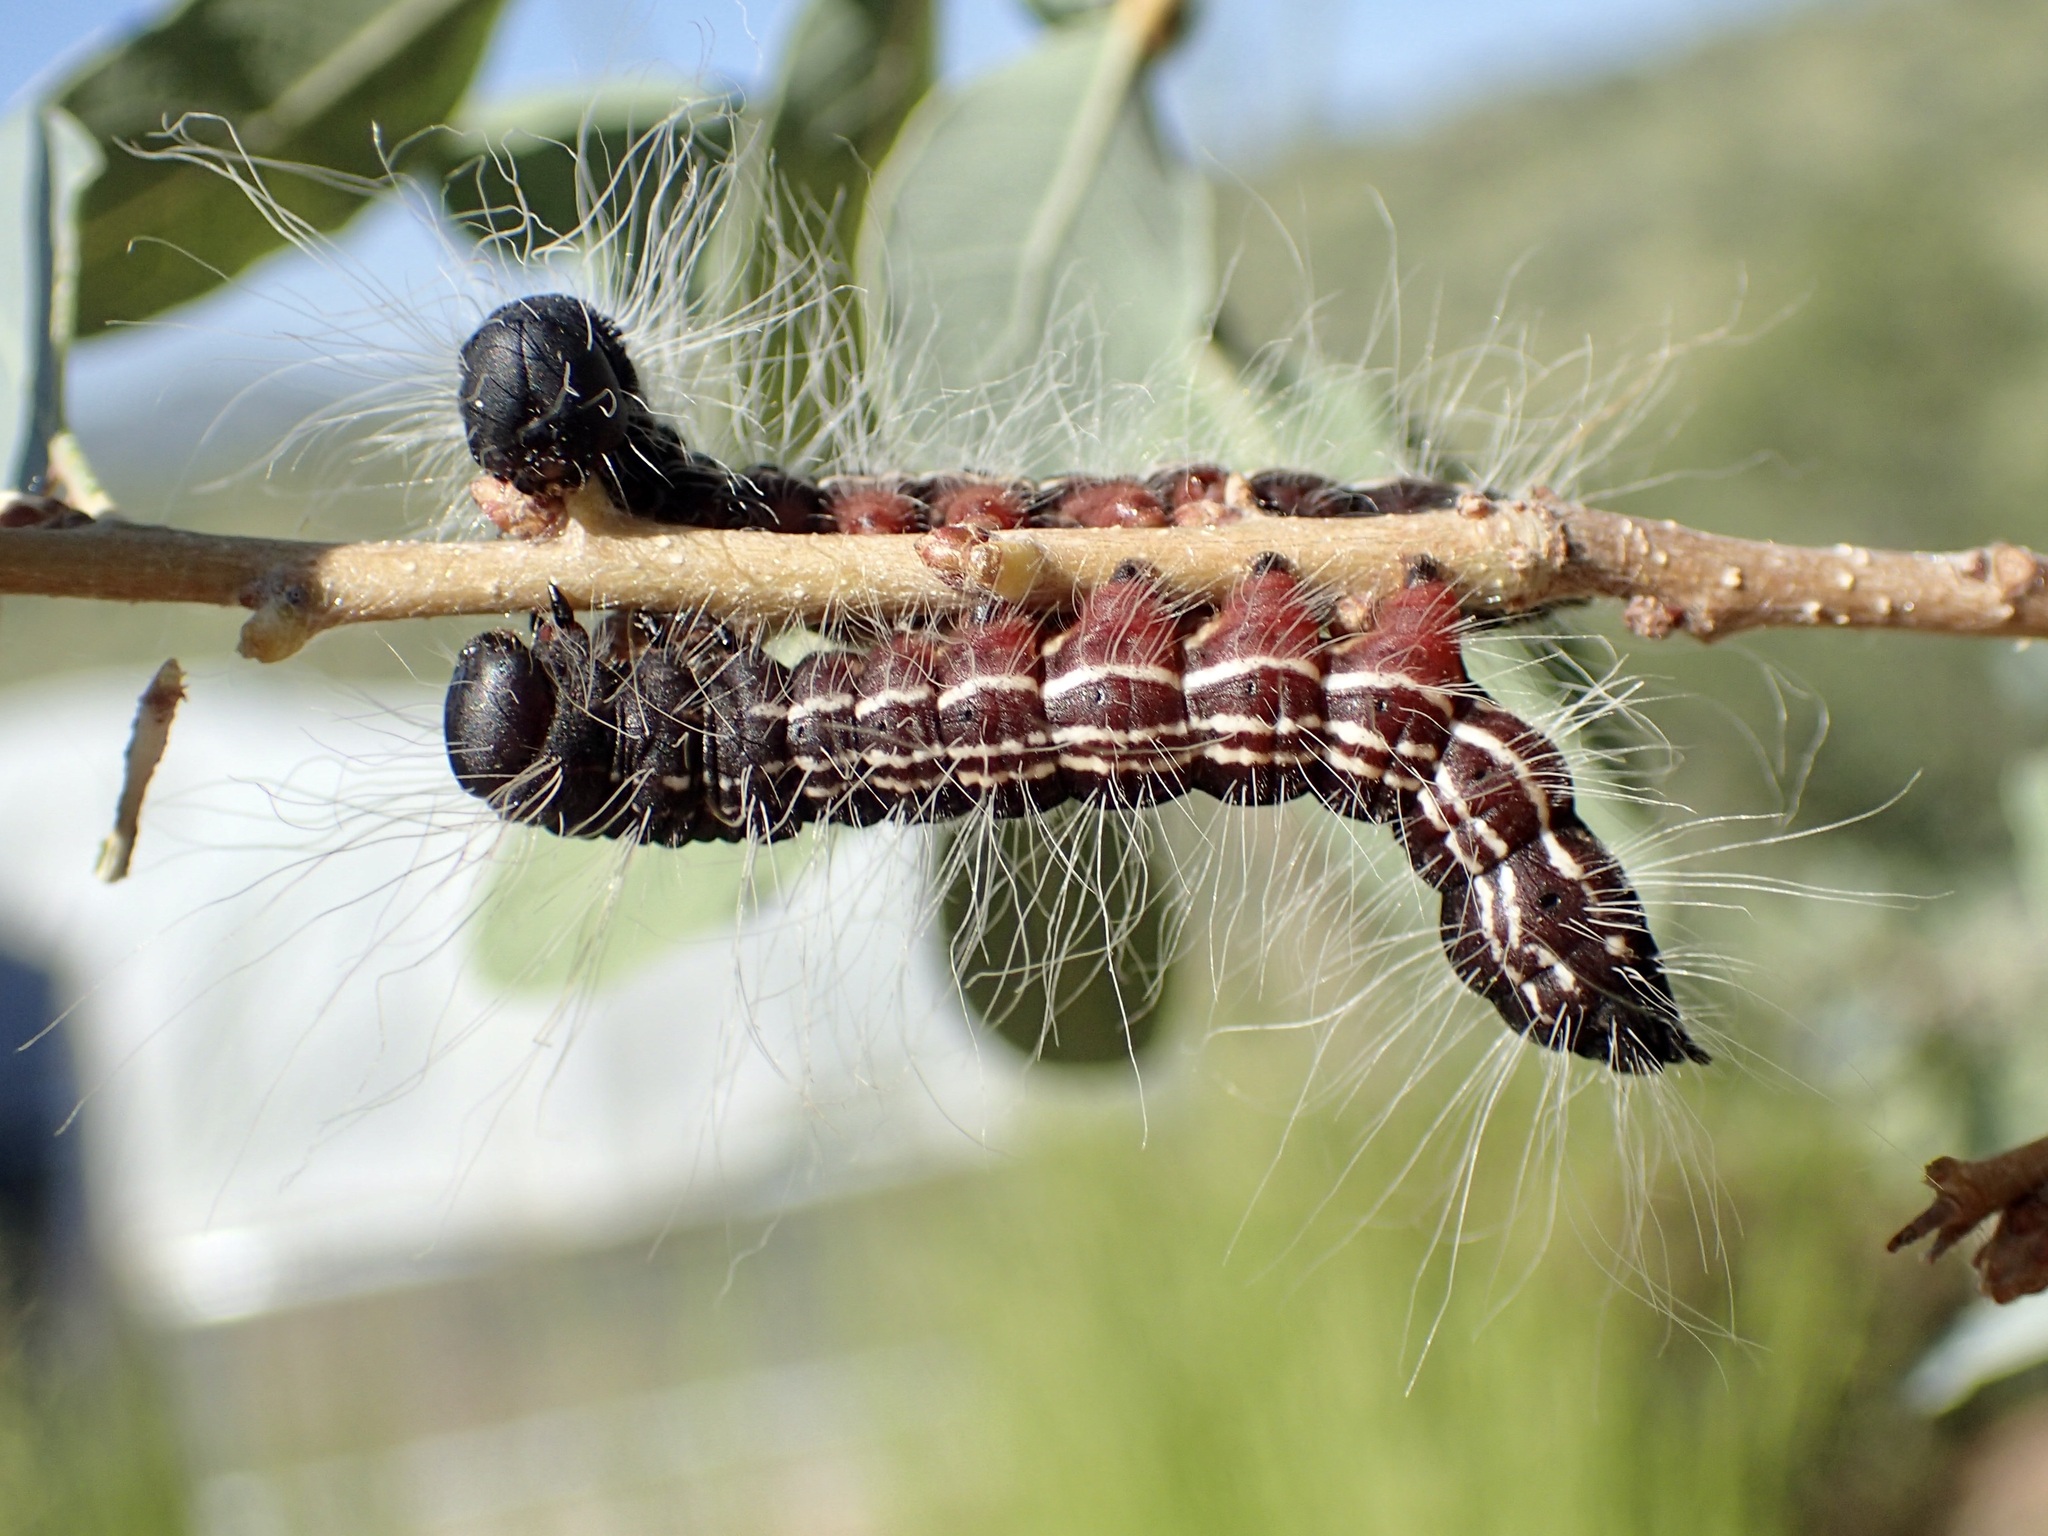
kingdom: Animalia
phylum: Arthropoda
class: Insecta
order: Lepidoptera
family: Notodontidae
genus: Datana
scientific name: Datana perfusa
